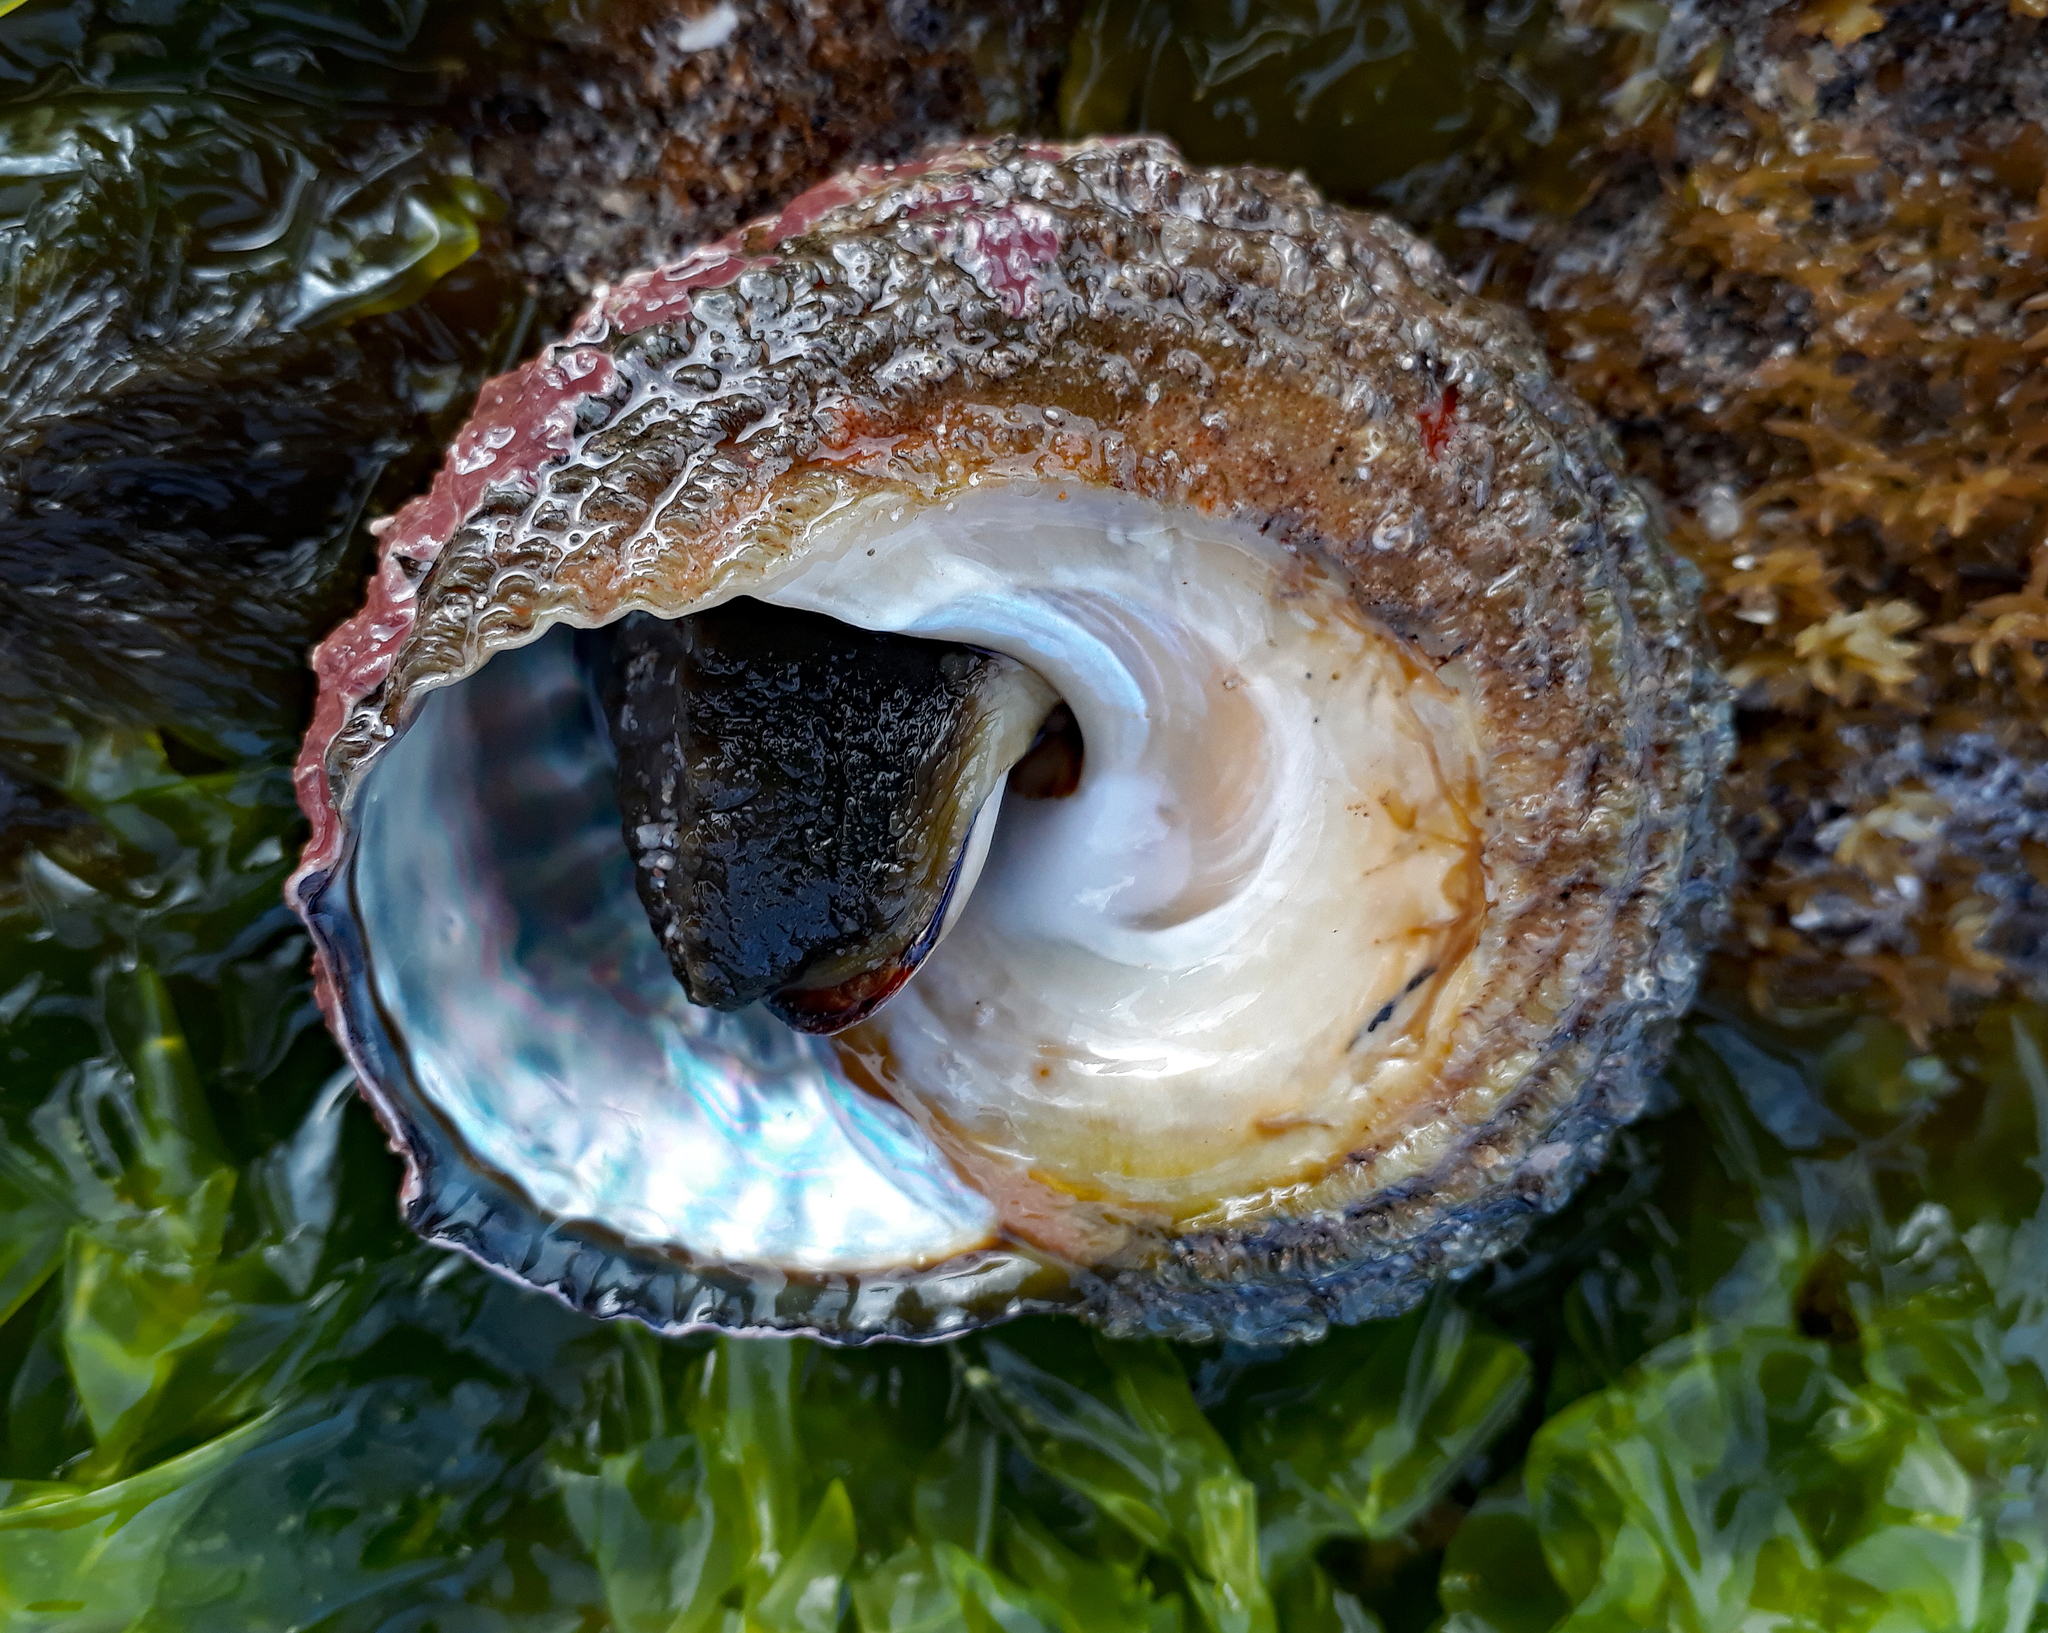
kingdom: Animalia
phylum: Mollusca
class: Gastropoda
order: Trochida
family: Turbinidae
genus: Cookia
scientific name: Cookia sulcata
